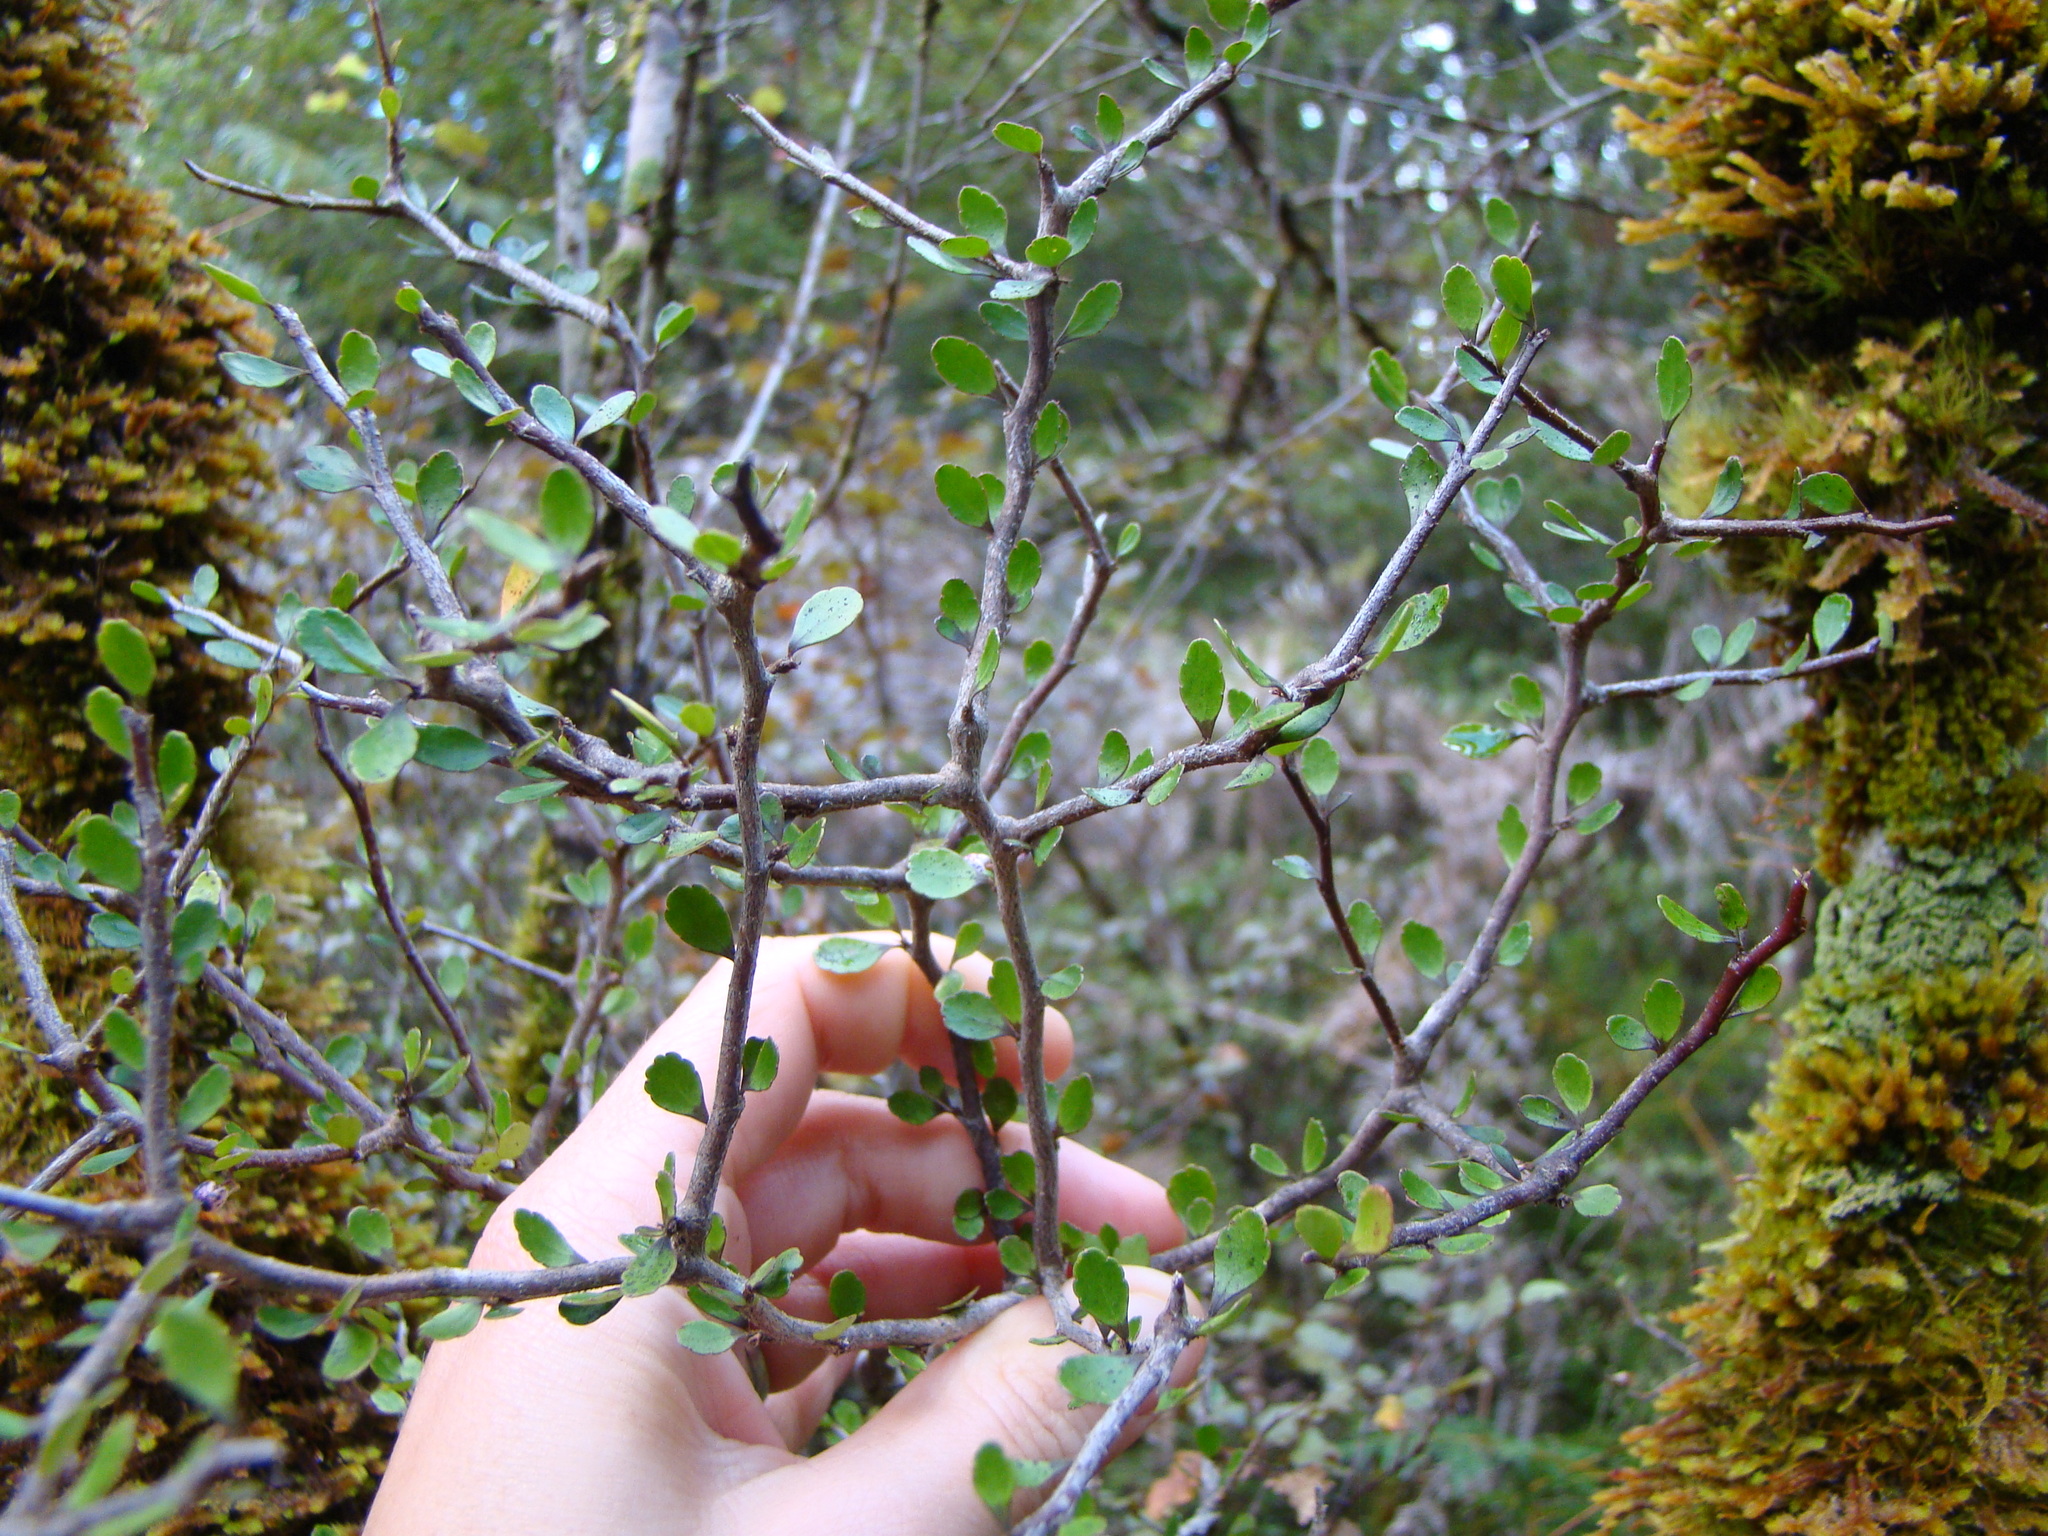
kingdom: Plantae
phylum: Tracheophyta
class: Magnoliopsida
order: Apiales
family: Araliaceae
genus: Raukaua
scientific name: Raukaua anomalus
